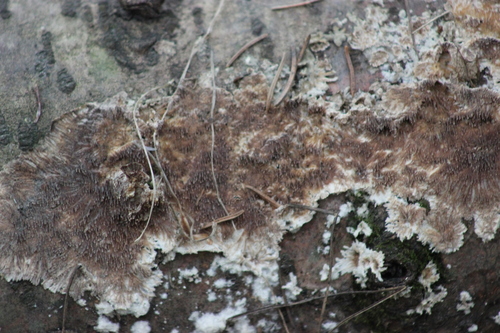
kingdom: Fungi
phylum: Basidiomycota
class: Agaricomycetes
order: Hymenochaetales
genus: Trichaptum
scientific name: Trichaptum fuscoviolaceum
